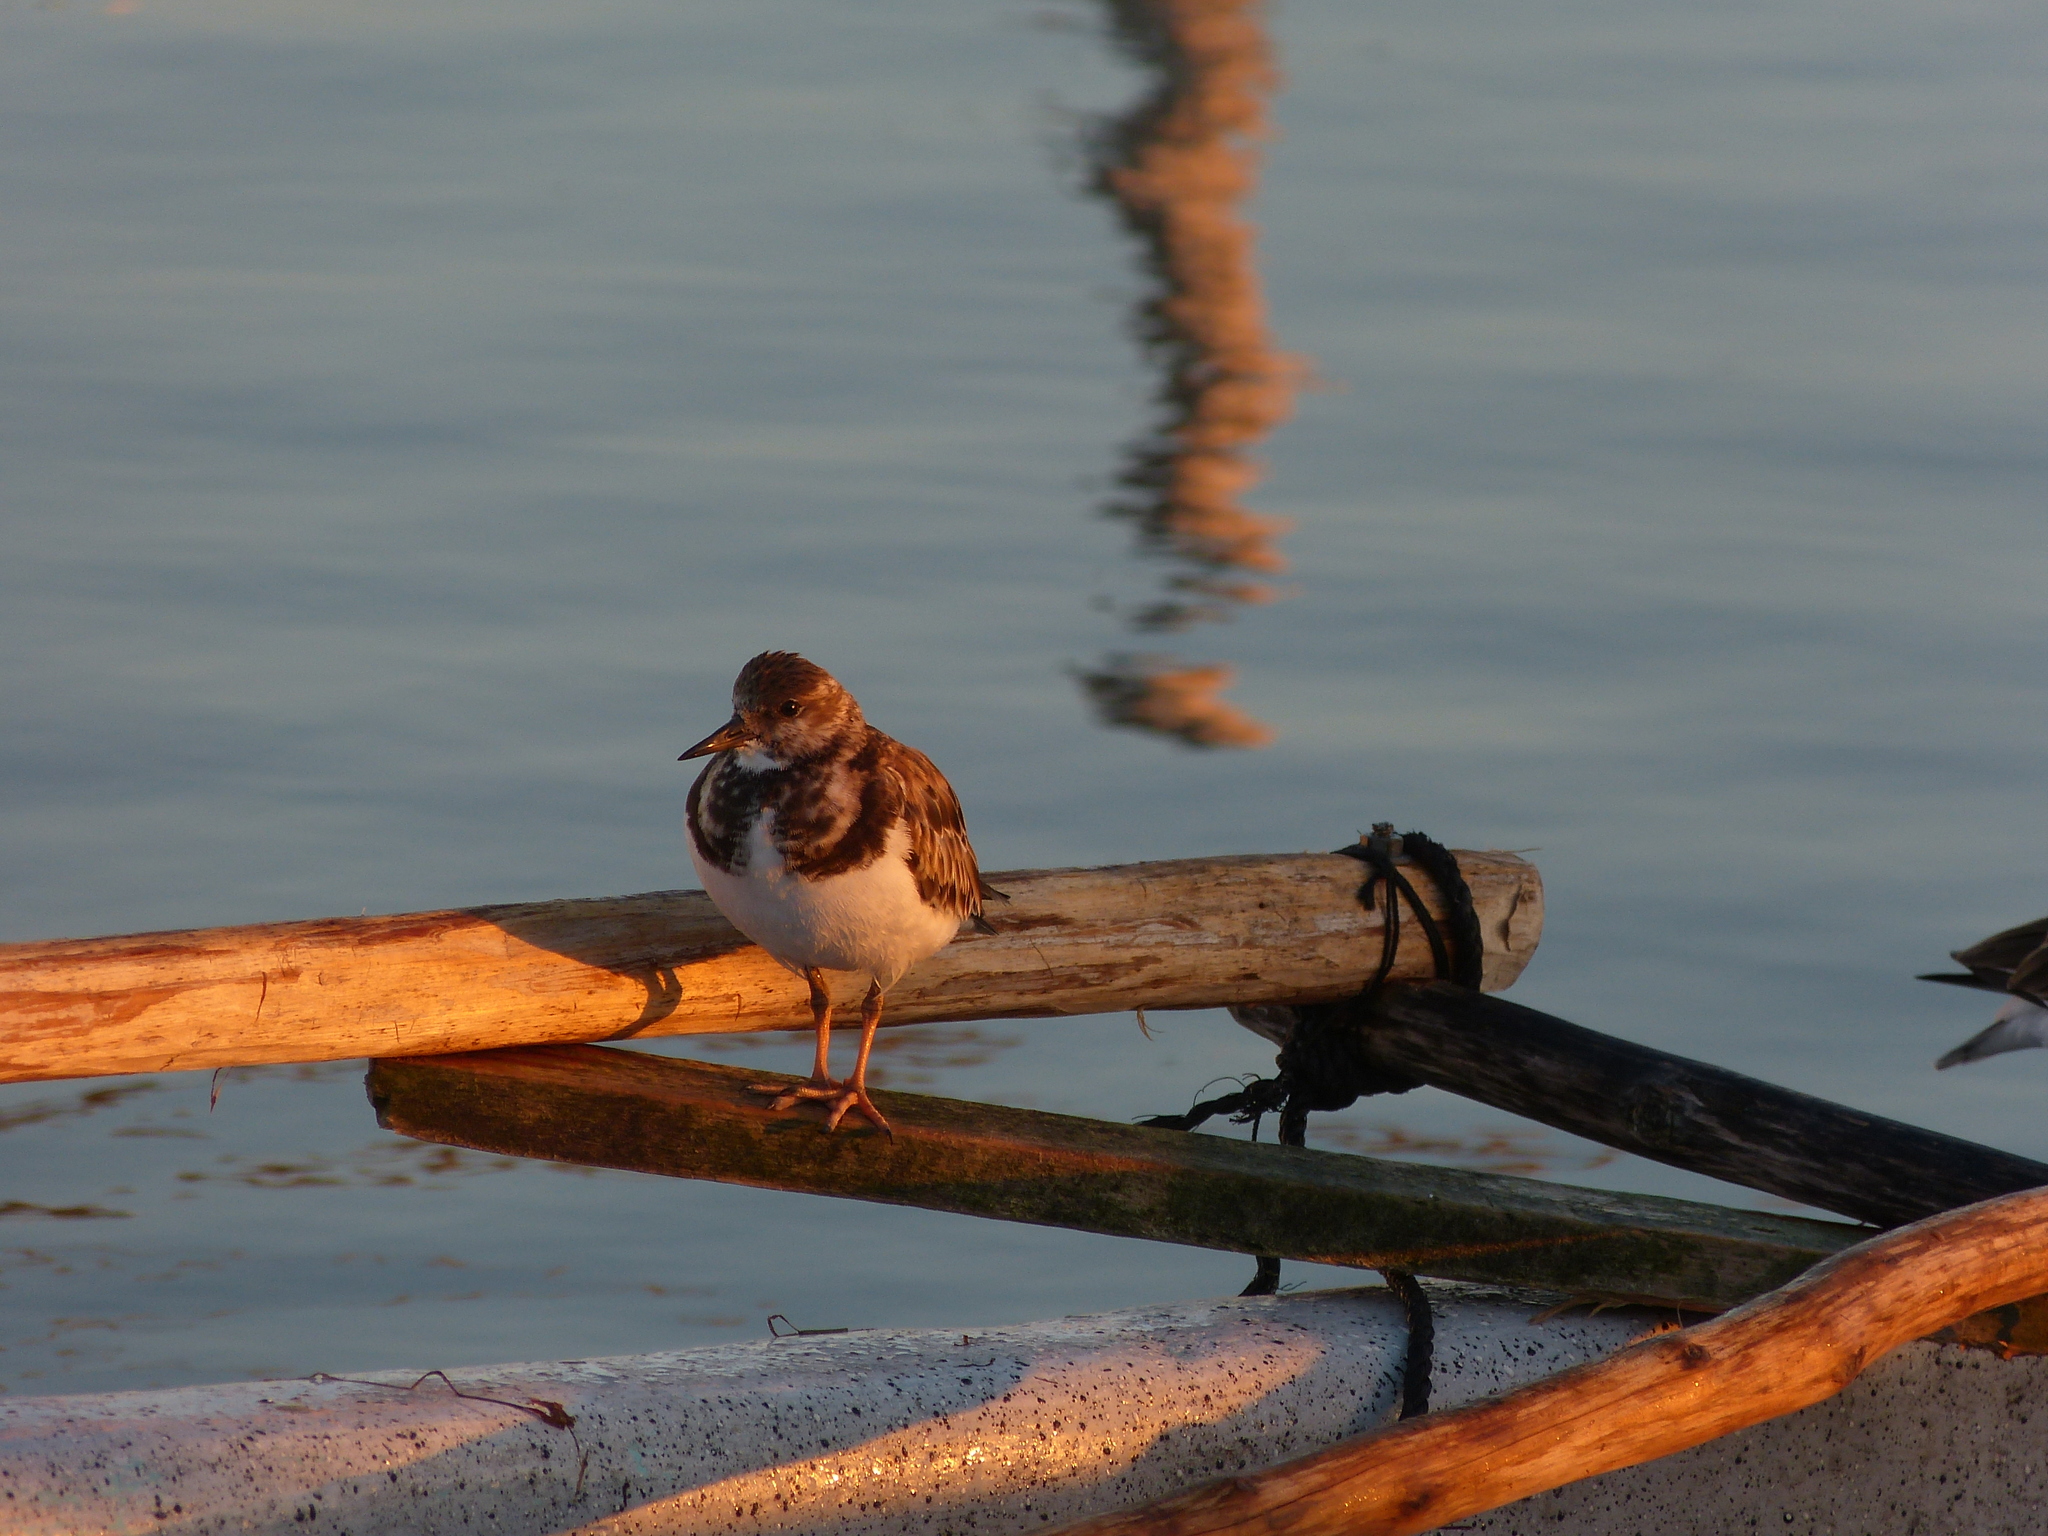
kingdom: Animalia
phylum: Chordata
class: Aves
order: Charadriiformes
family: Scolopacidae
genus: Arenaria
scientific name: Arenaria interpres
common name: Ruddy turnstone
